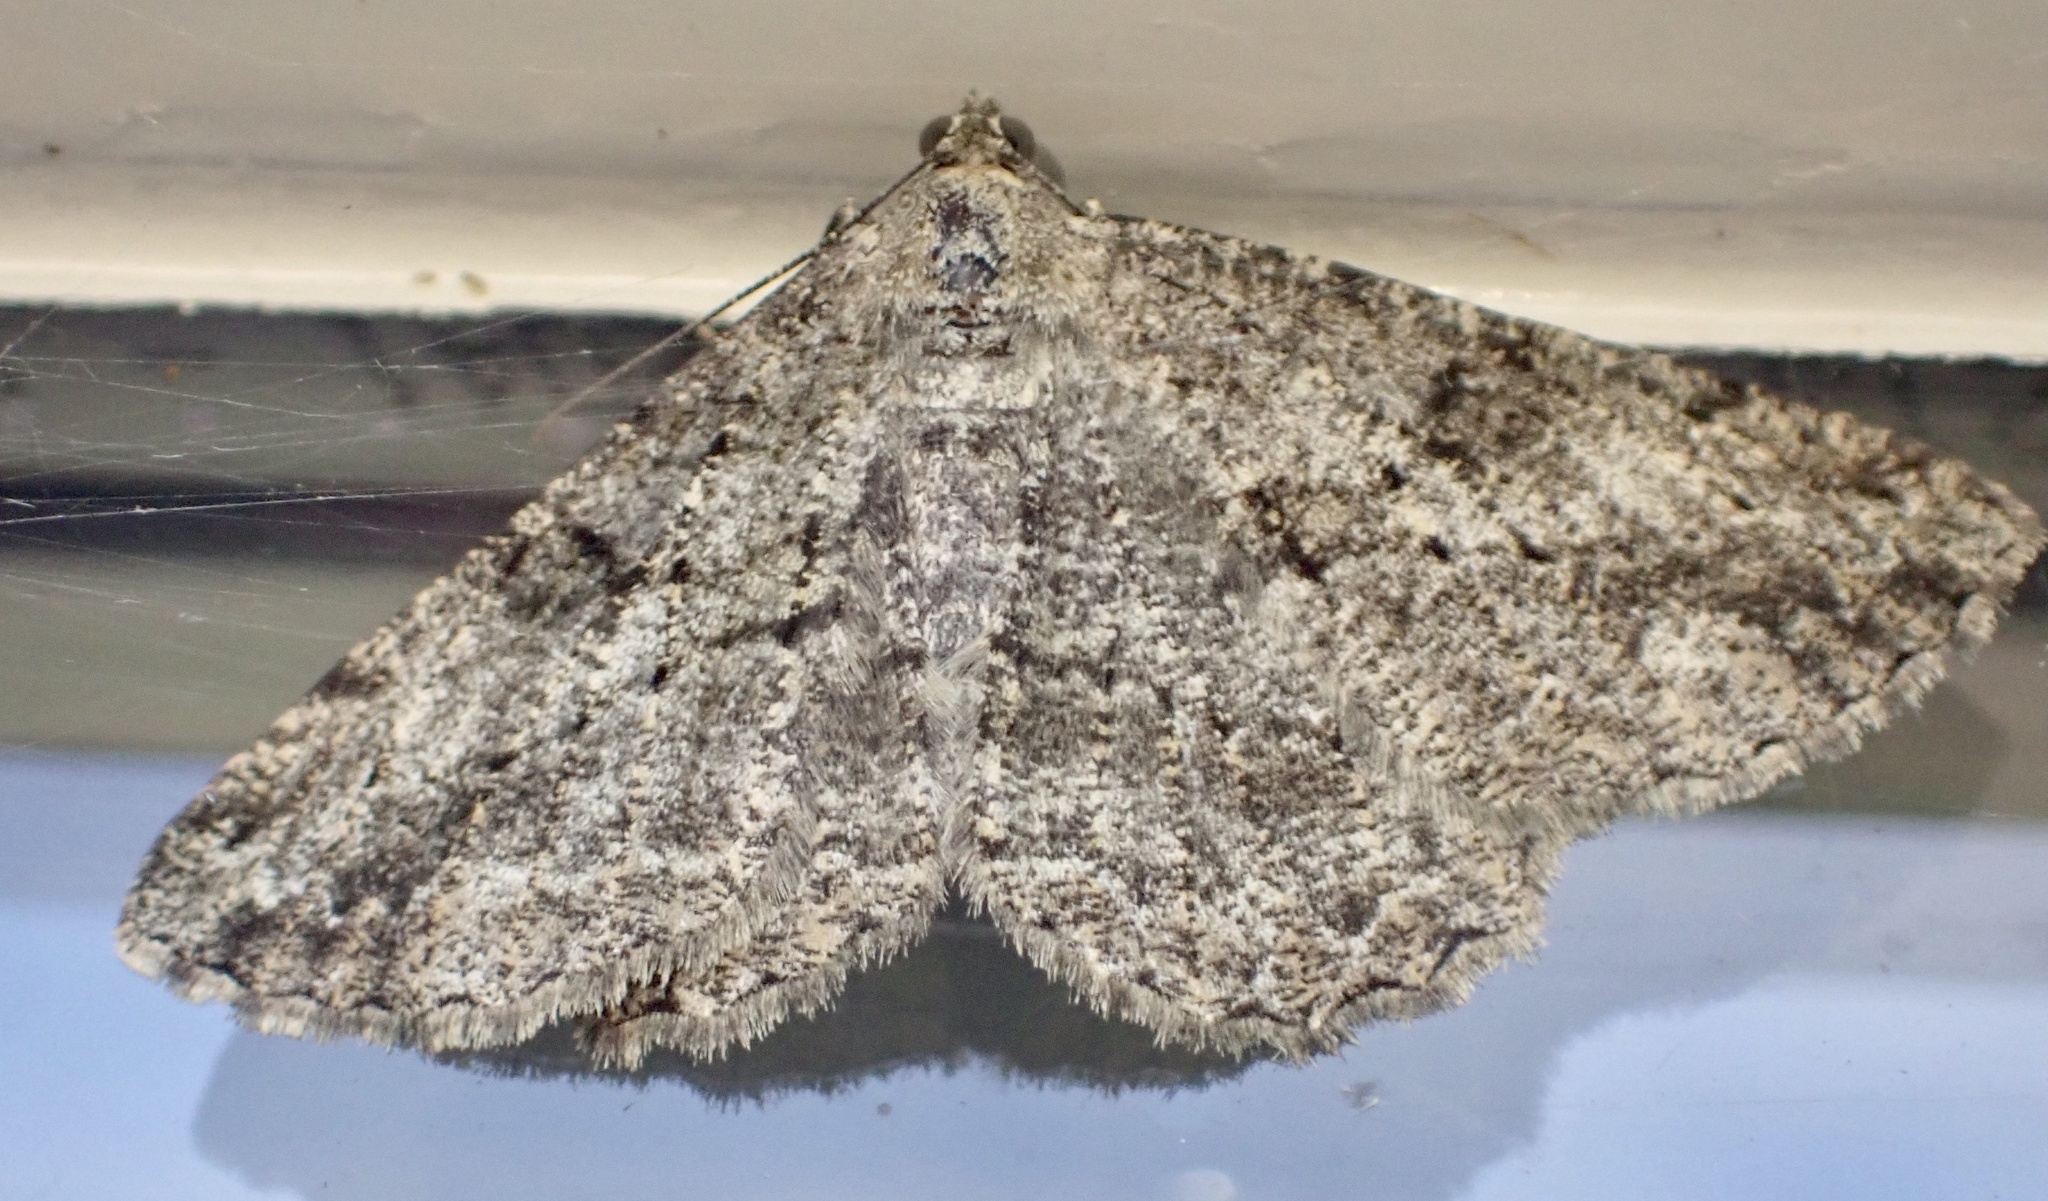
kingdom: Animalia
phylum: Arthropoda
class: Insecta
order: Lepidoptera
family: Geometridae
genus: Peribatodes
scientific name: Peribatodes rhomboidaria
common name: Willow beauty
